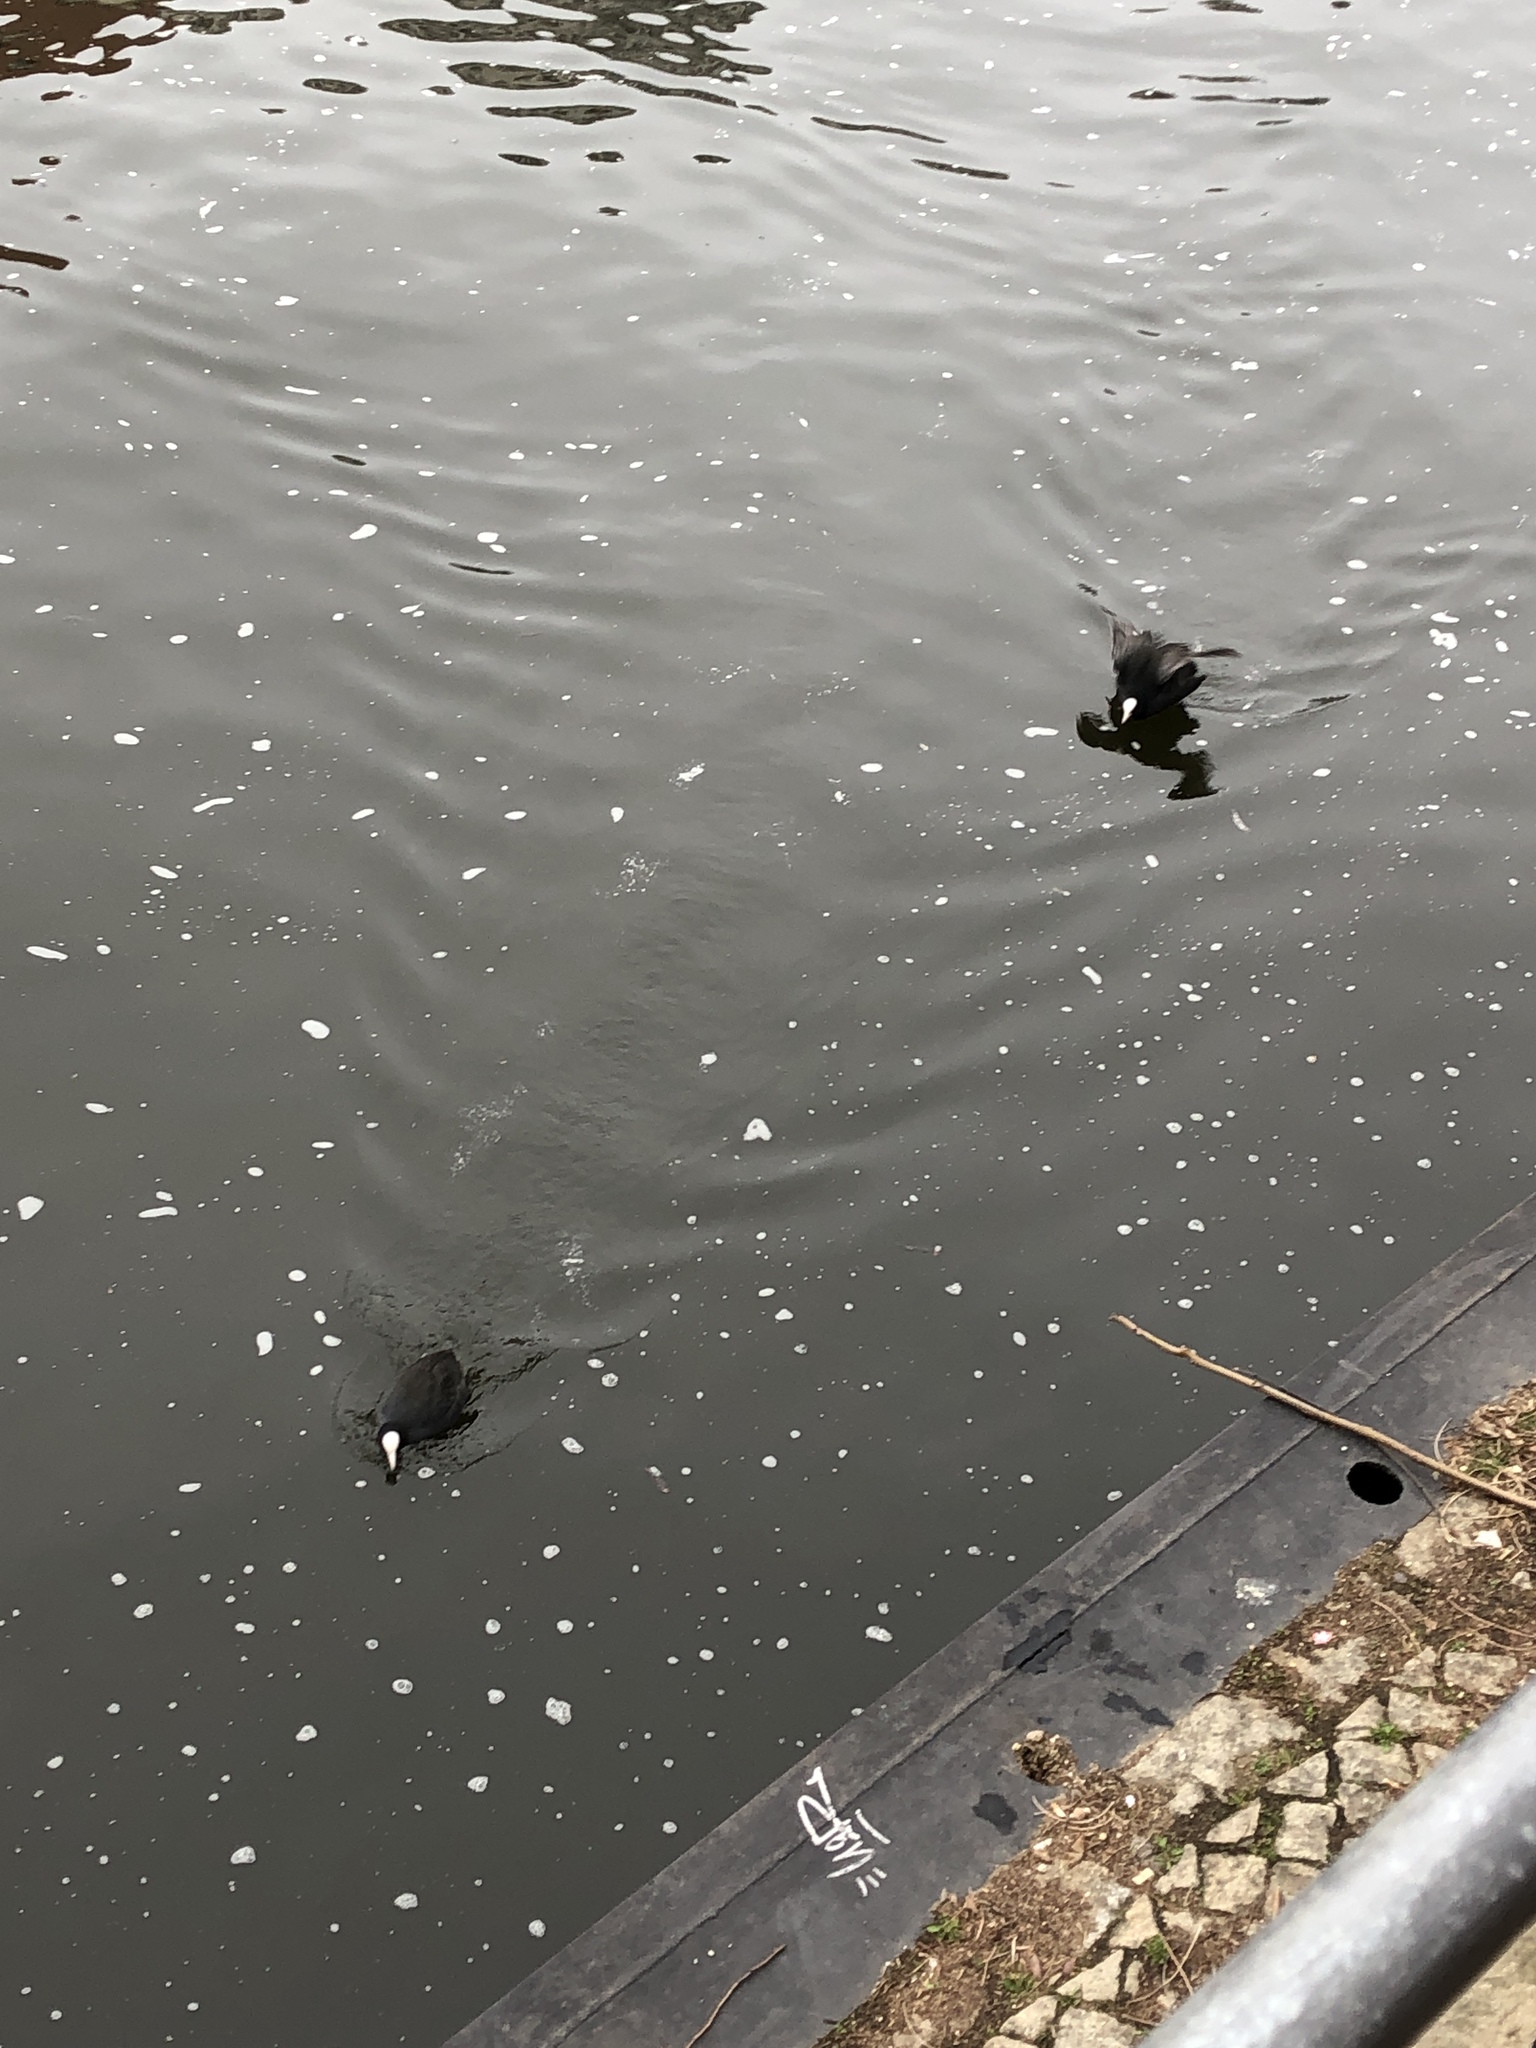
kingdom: Animalia
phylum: Chordata
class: Aves
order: Gruiformes
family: Rallidae
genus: Fulica
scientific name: Fulica atra
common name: Eurasian coot
